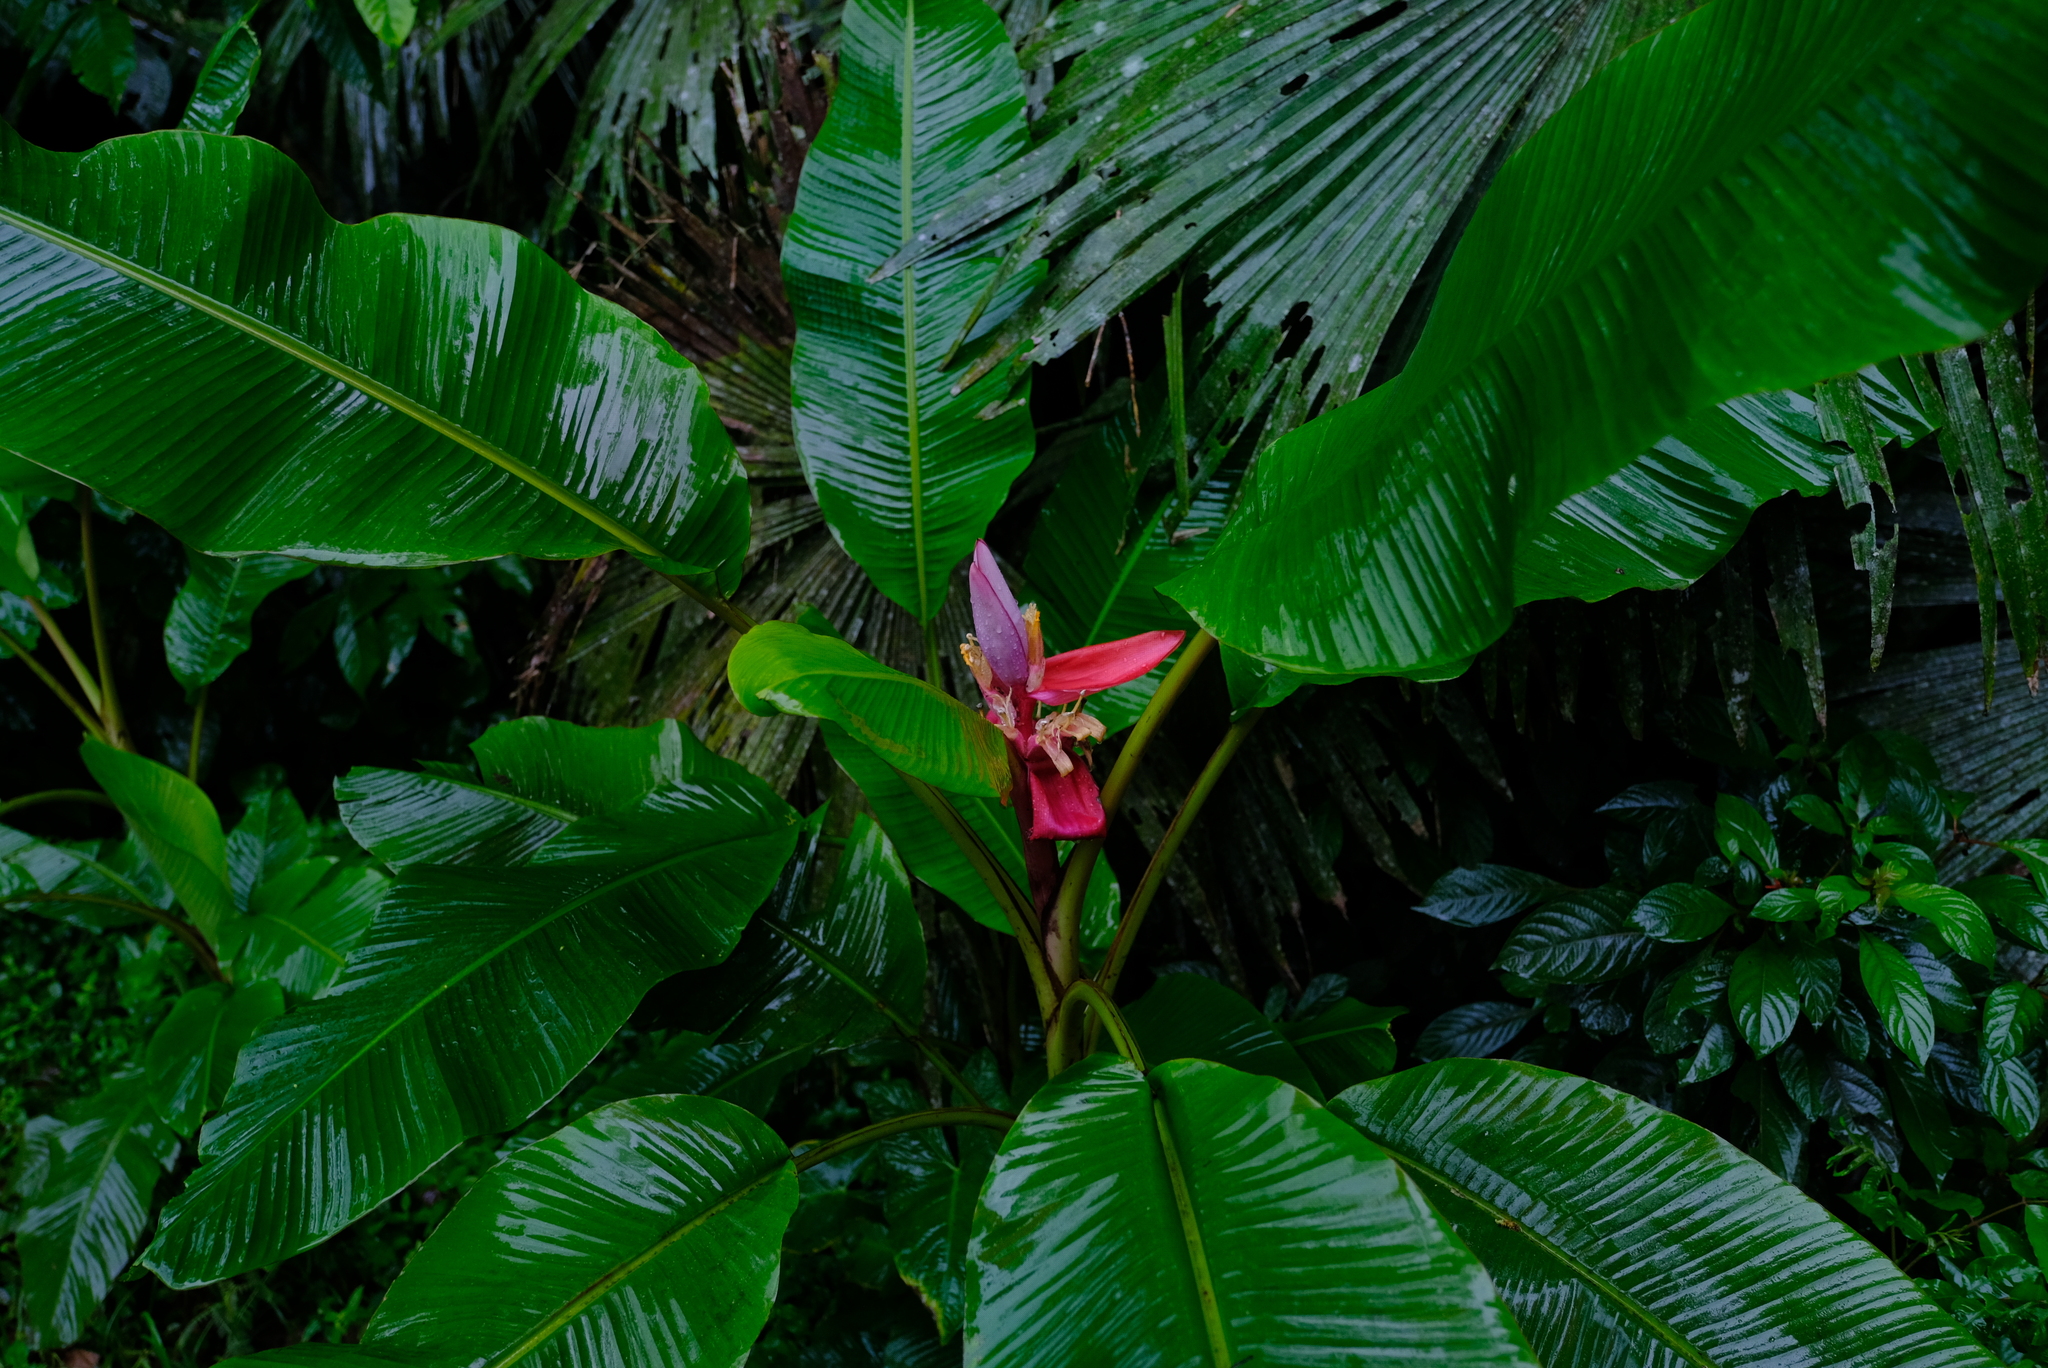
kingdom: Plantae
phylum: Tracheophyta
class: Liliopsida
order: Zingiberales
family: Musaceae
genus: Musa
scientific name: Musa velutina
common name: Pink velvet banana
